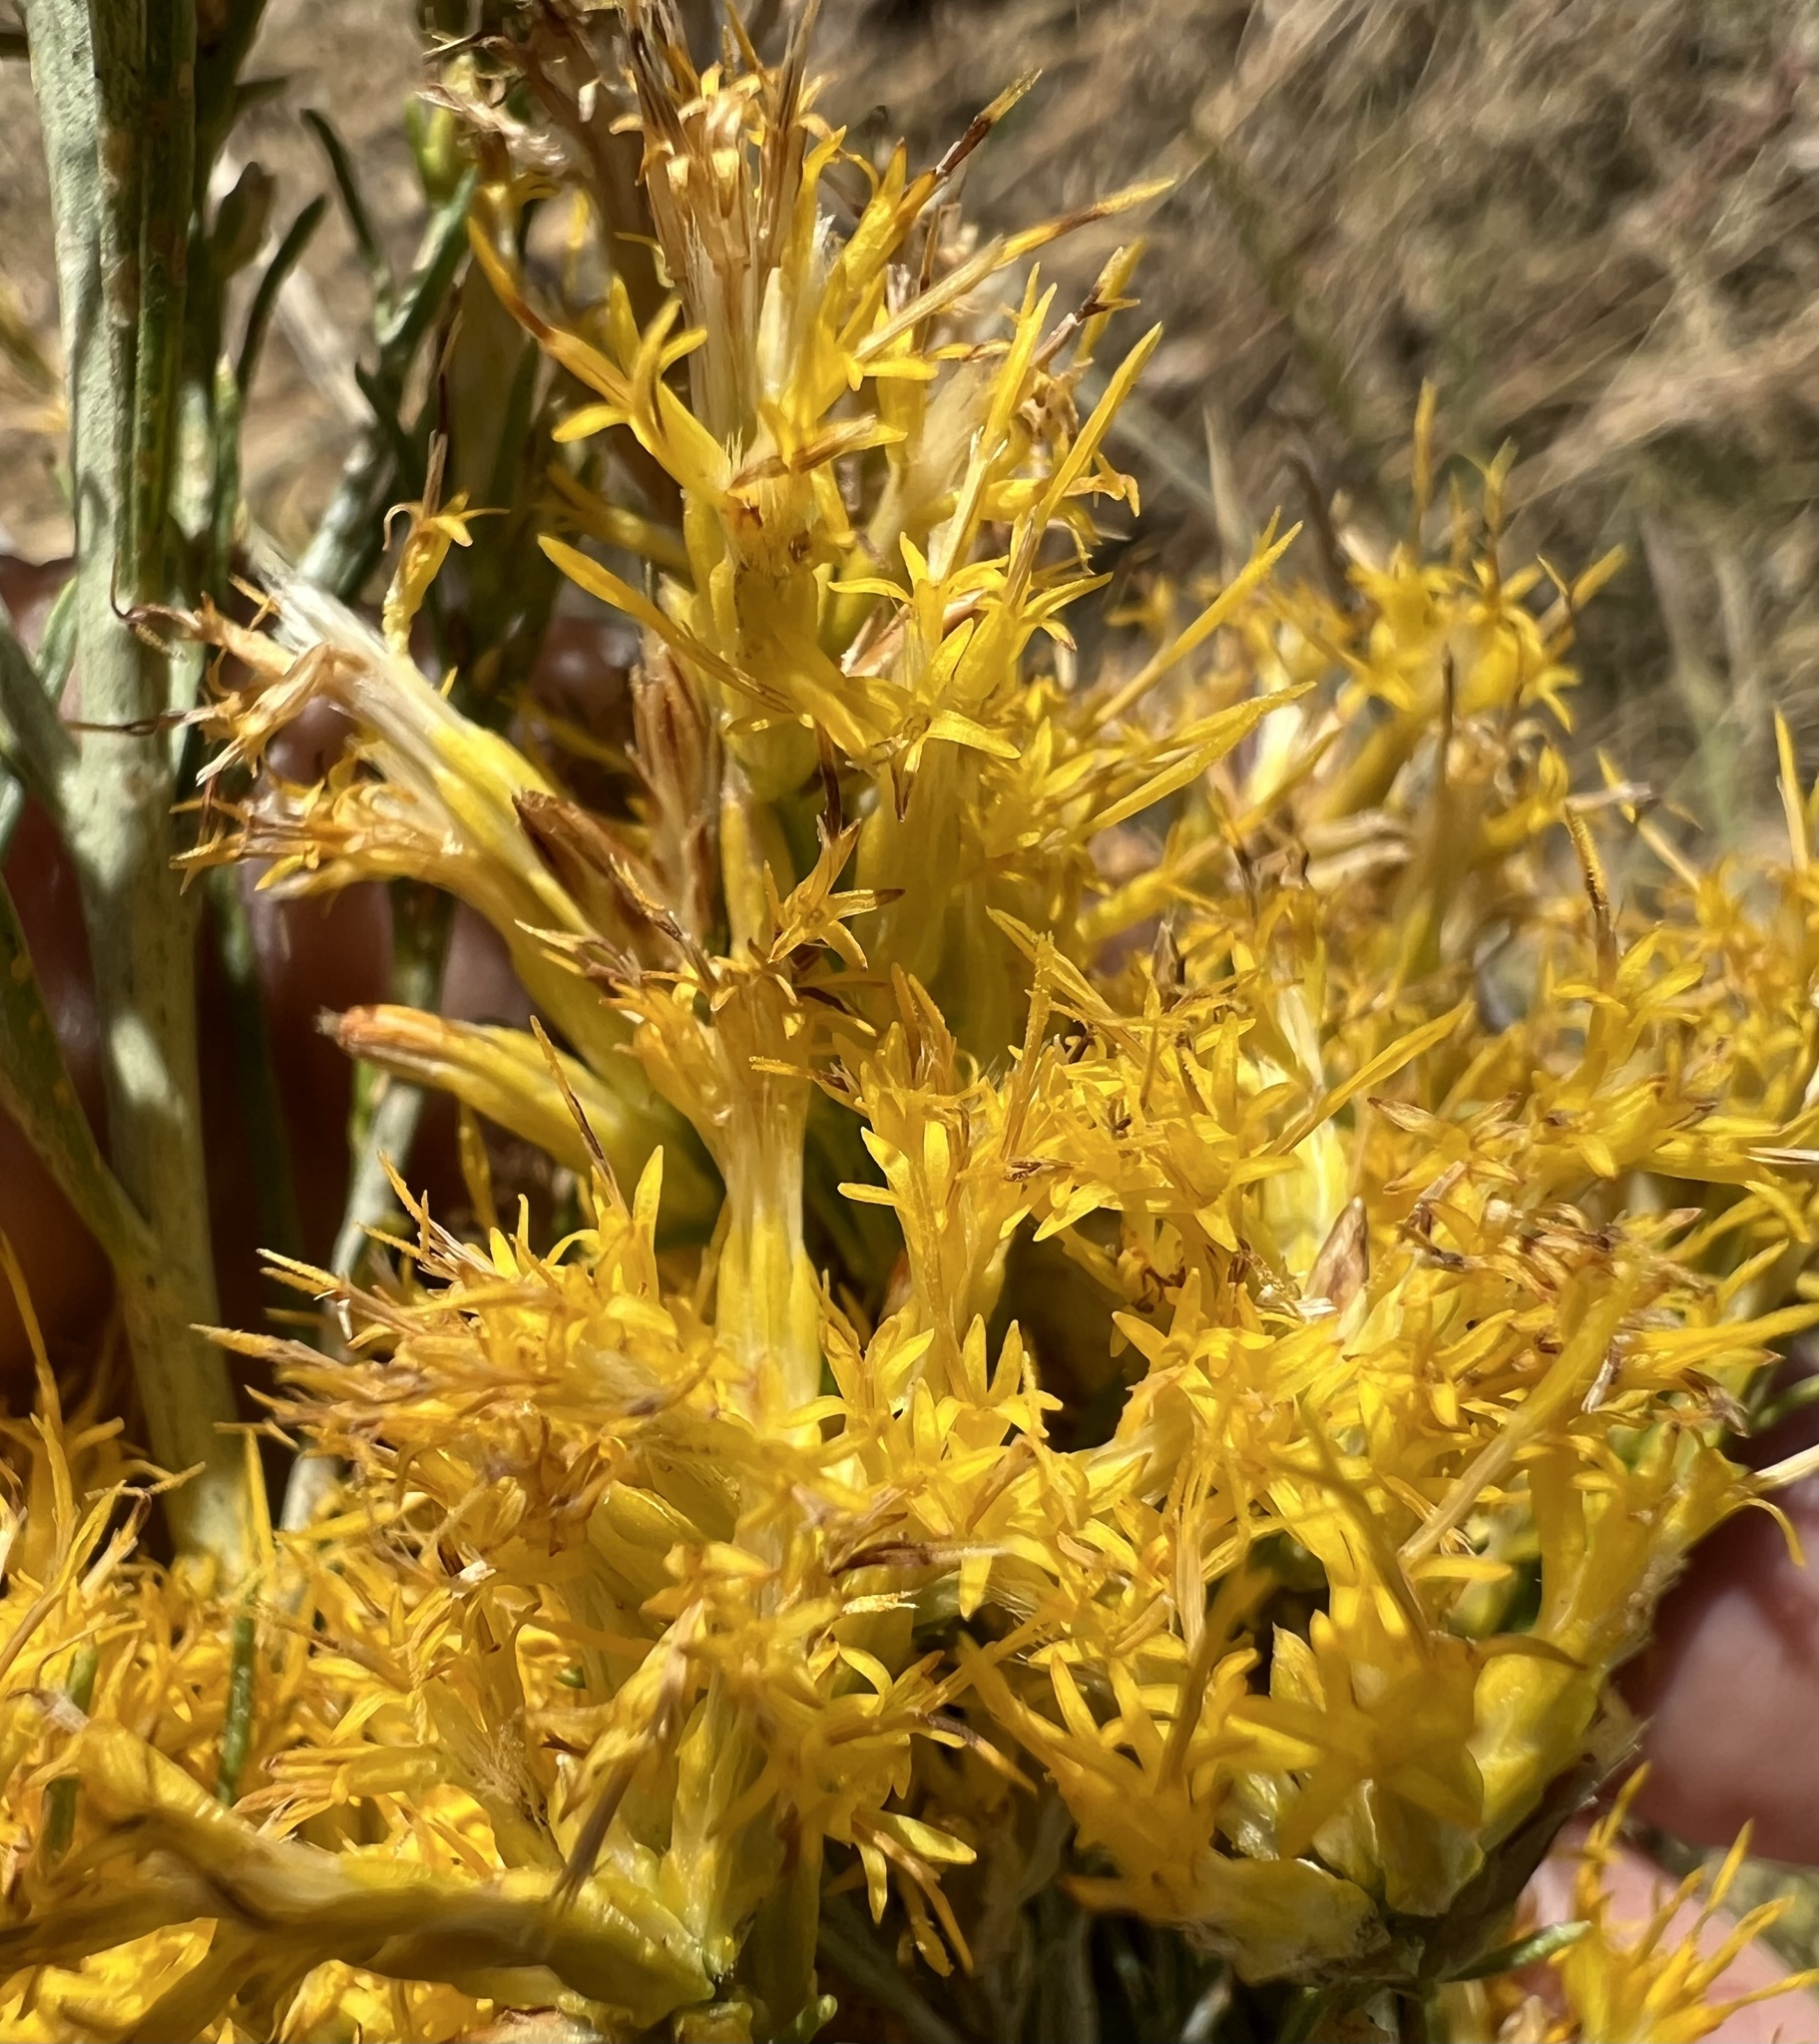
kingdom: Plantae
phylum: Tracheophyta
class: Magnoliopsida
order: Asterales
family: Asteraceae
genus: Ericameria
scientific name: Ericameria nauseosa
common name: Rubber rabbitbrush
